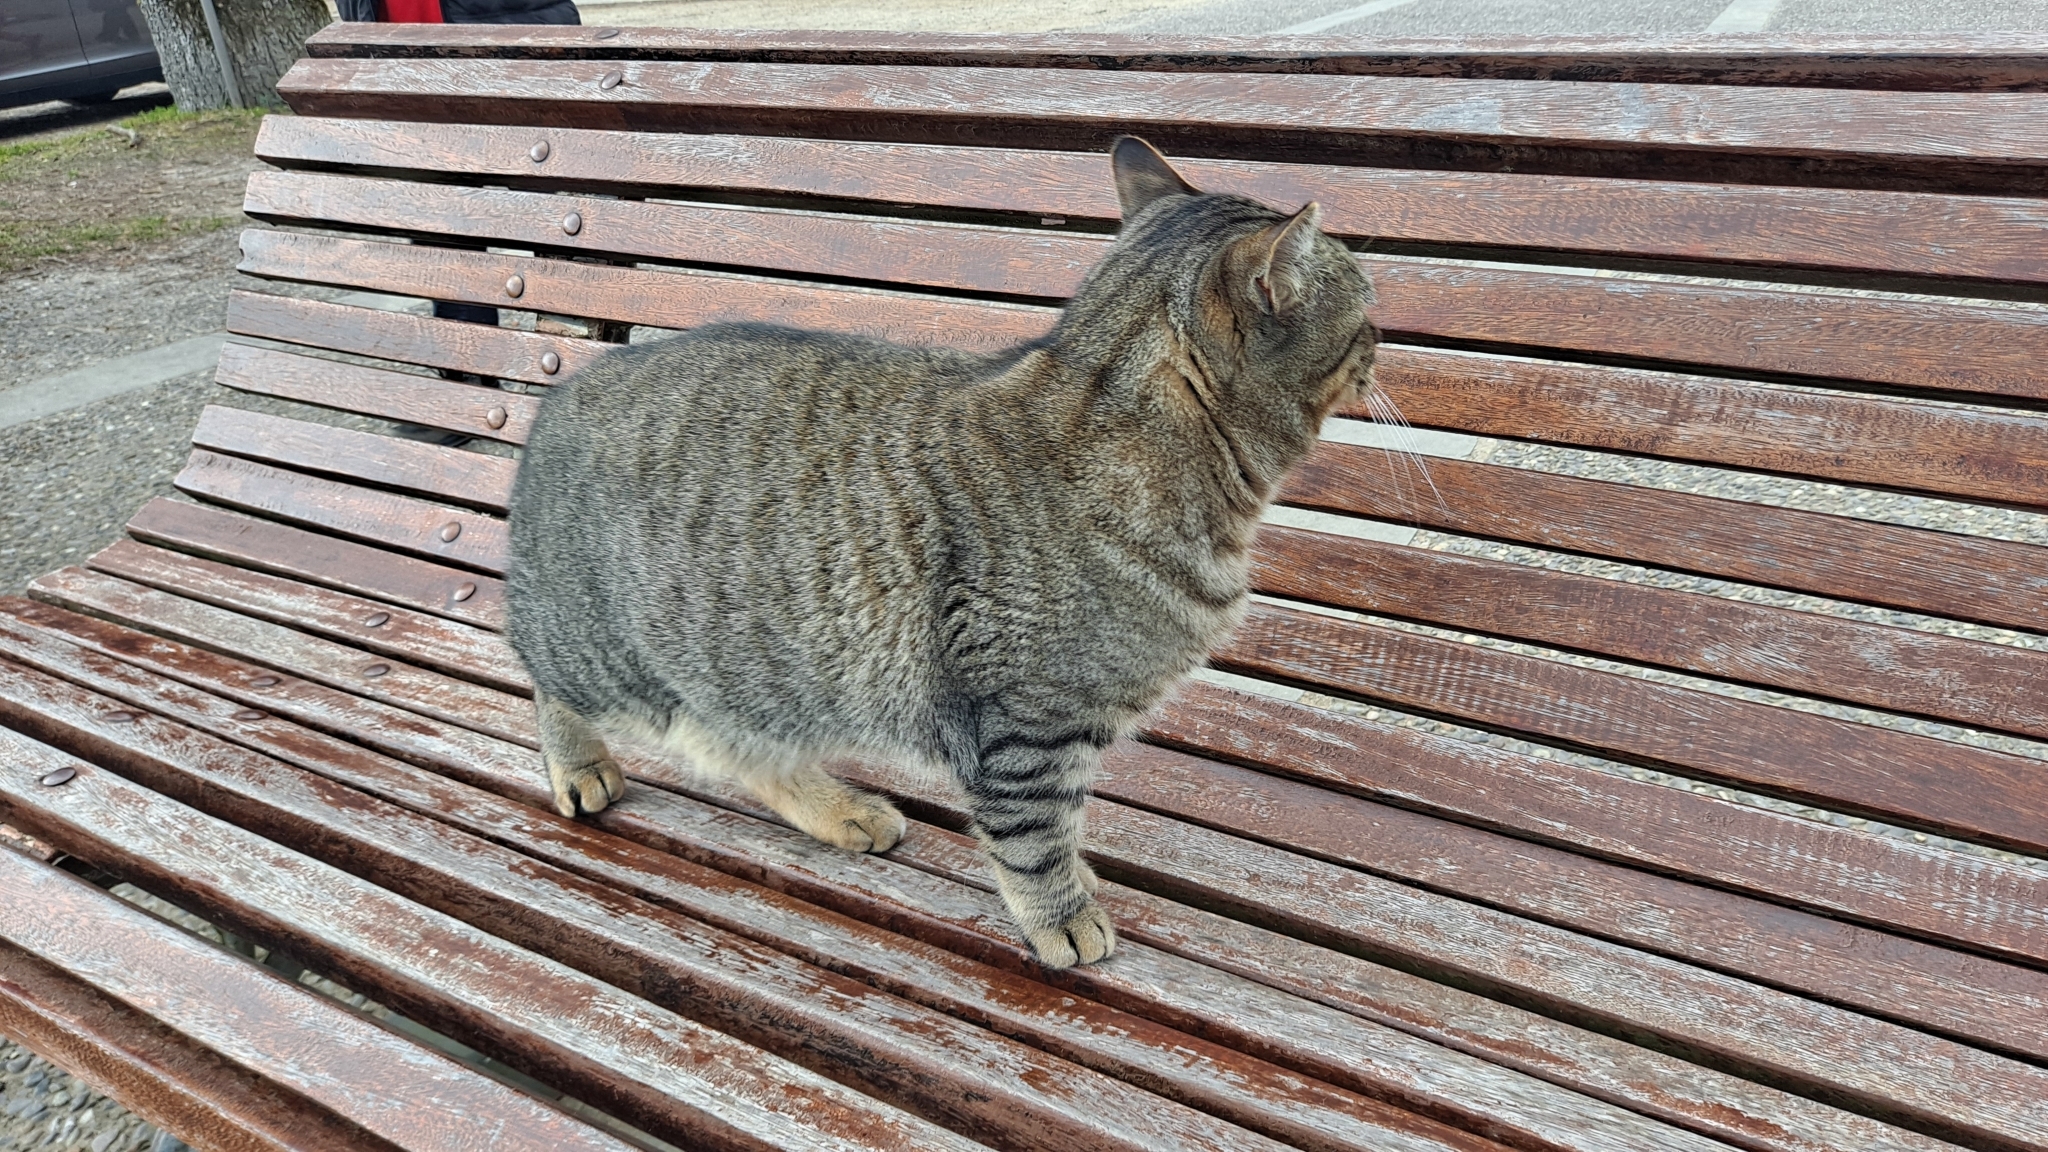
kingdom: Animalia
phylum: Chordata
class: Mammalia
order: Carnivora
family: Felidae
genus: Felis
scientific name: Felis catus
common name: Domestic cat
